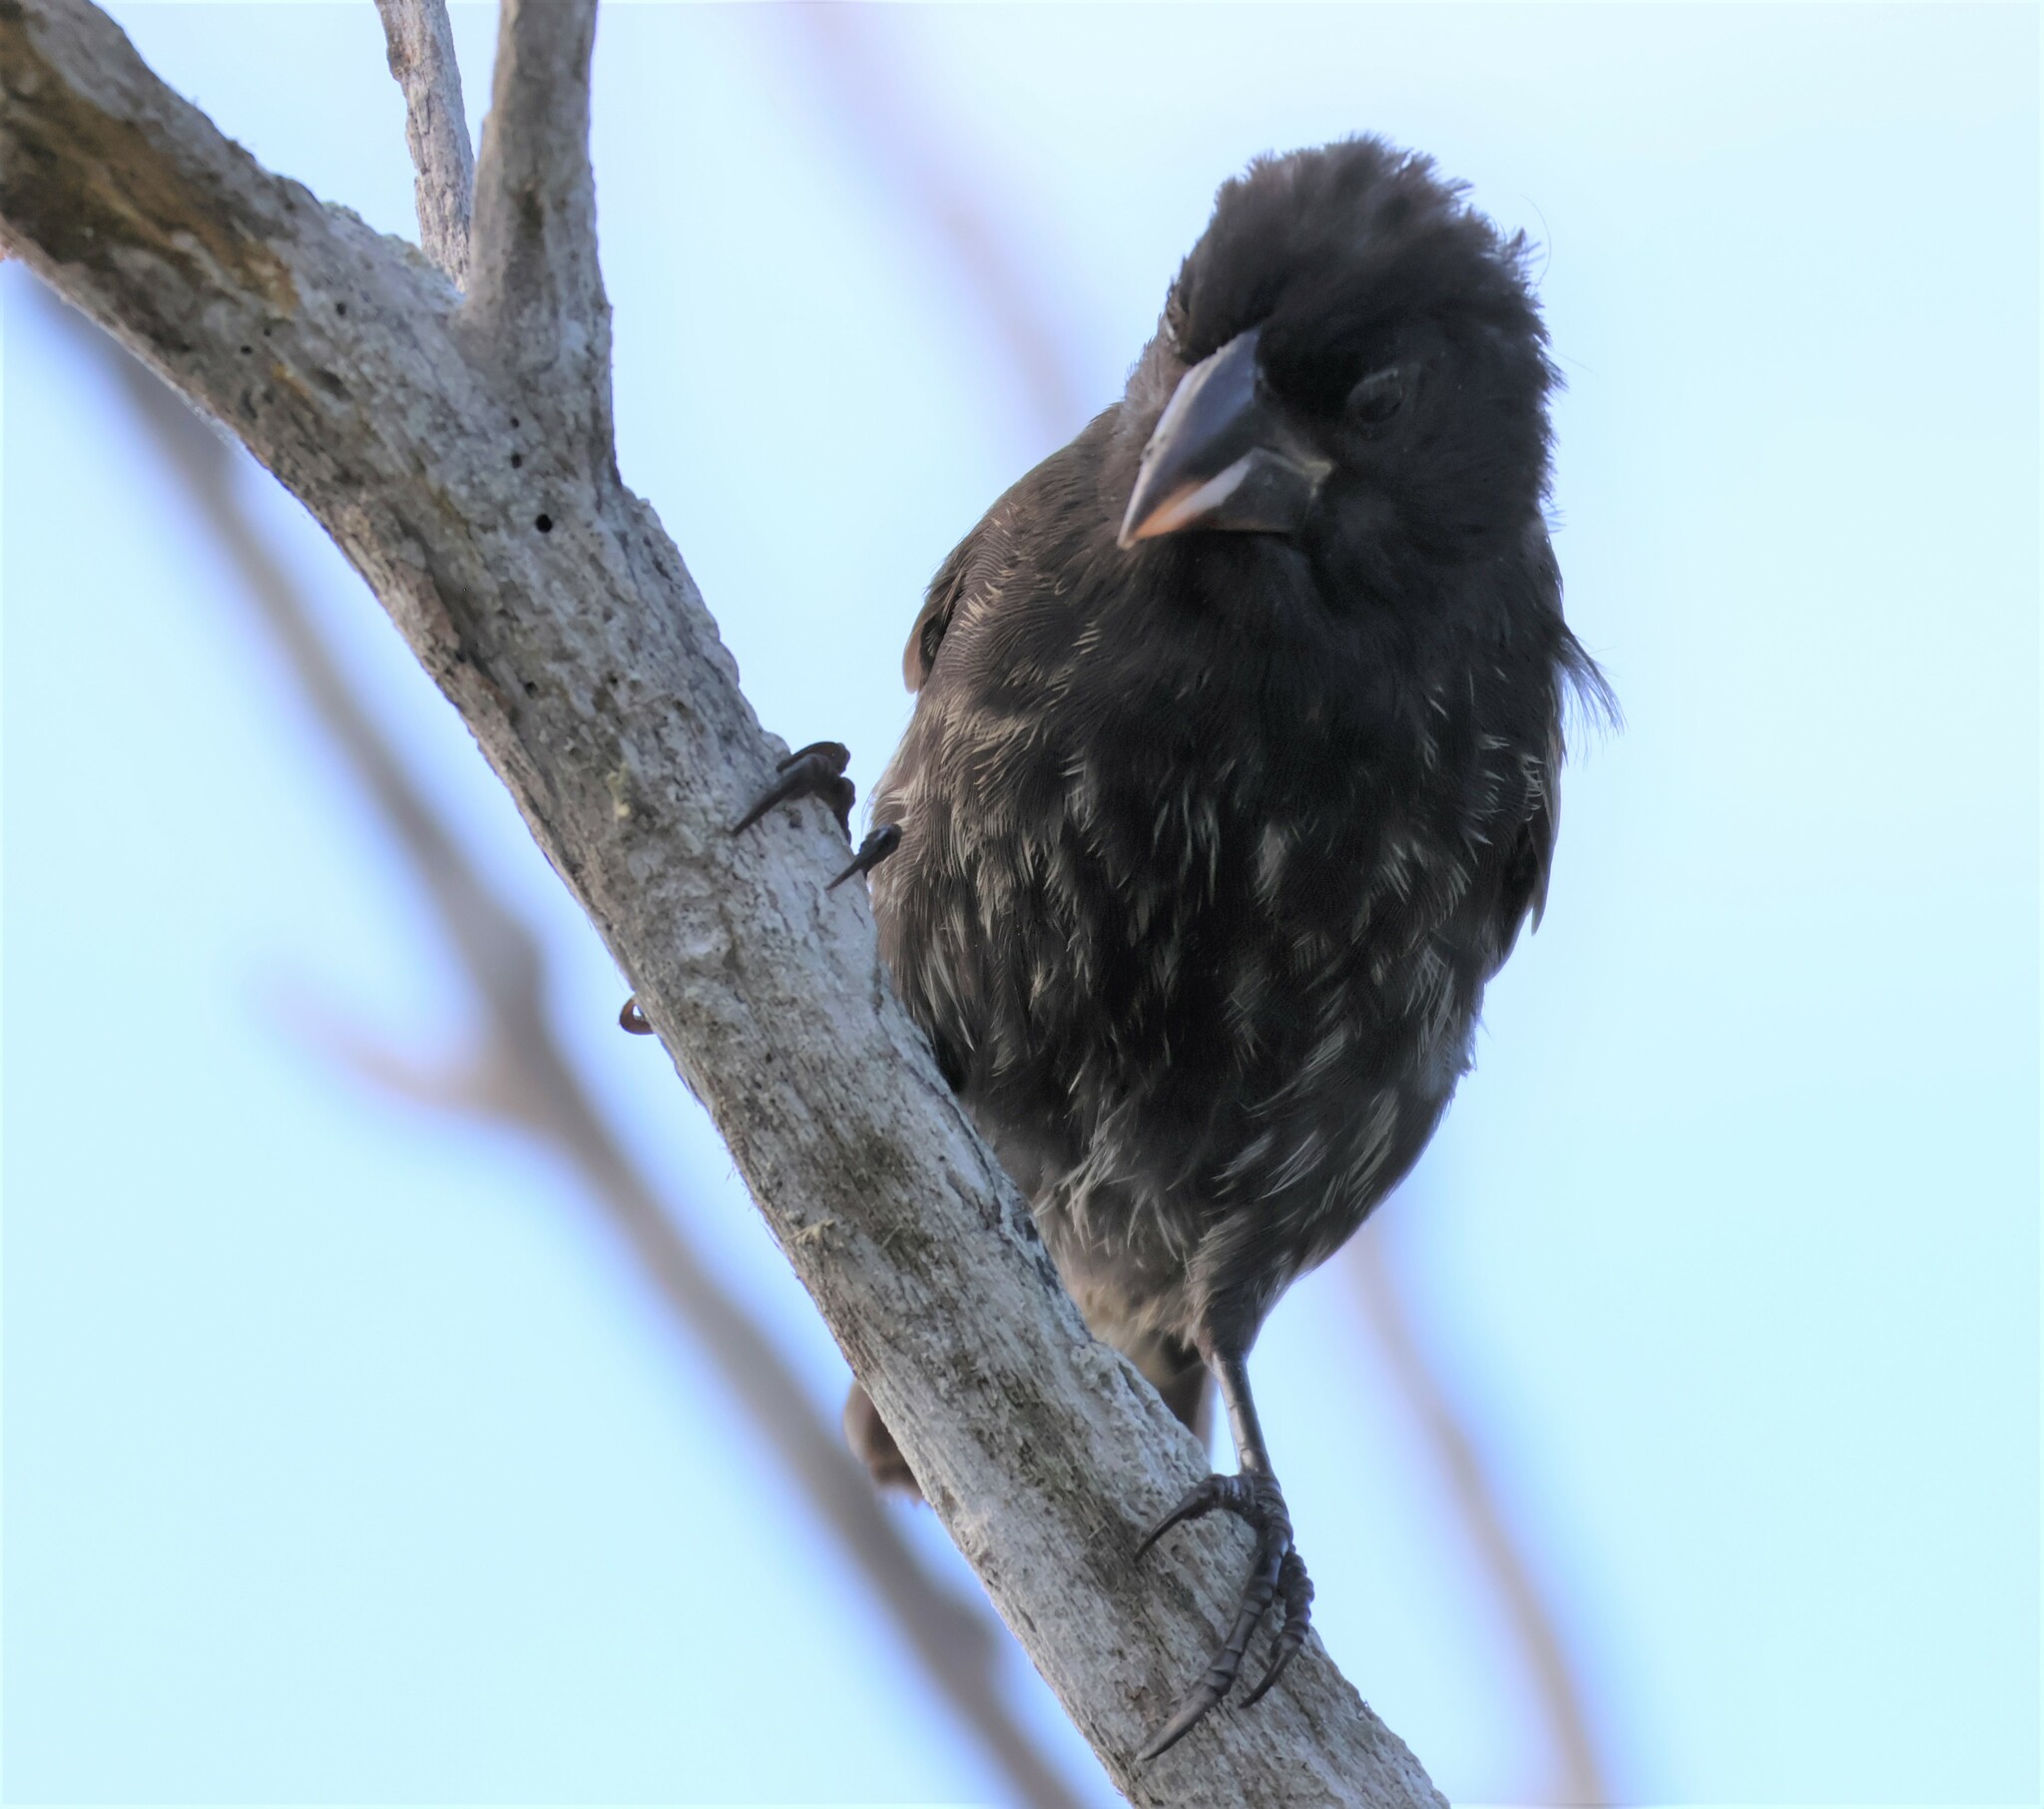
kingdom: Animalia
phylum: Chordata
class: Aves
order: Passeriformes
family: Thraupidae
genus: Geospiza
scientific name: Geospiza conirostris
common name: Large cactus finch
